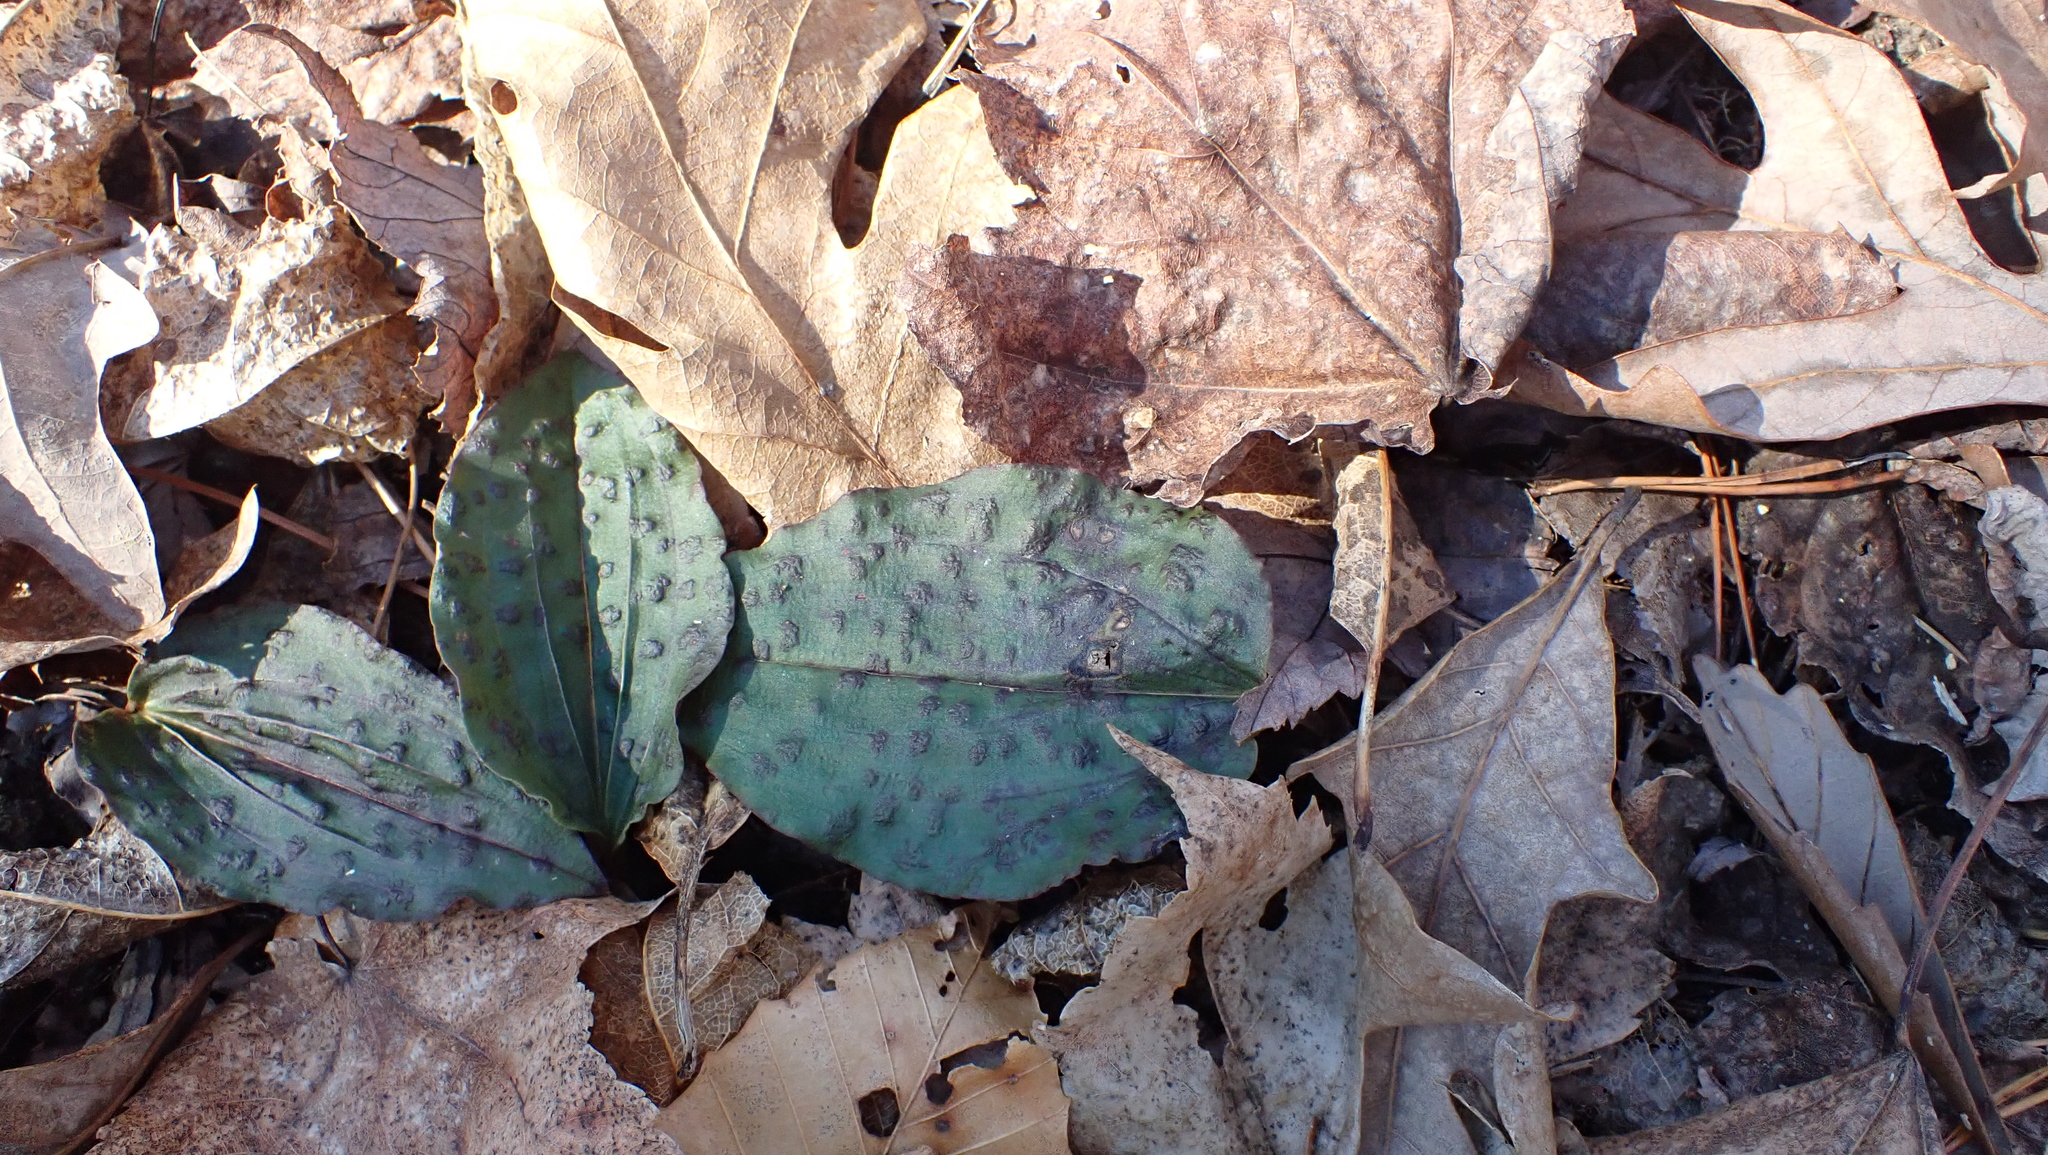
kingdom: Plantae
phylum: Tracheophyta
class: Liliopsida
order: Asparagales
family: Orchidaceae
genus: Tipularia
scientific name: Tipularia discolor
